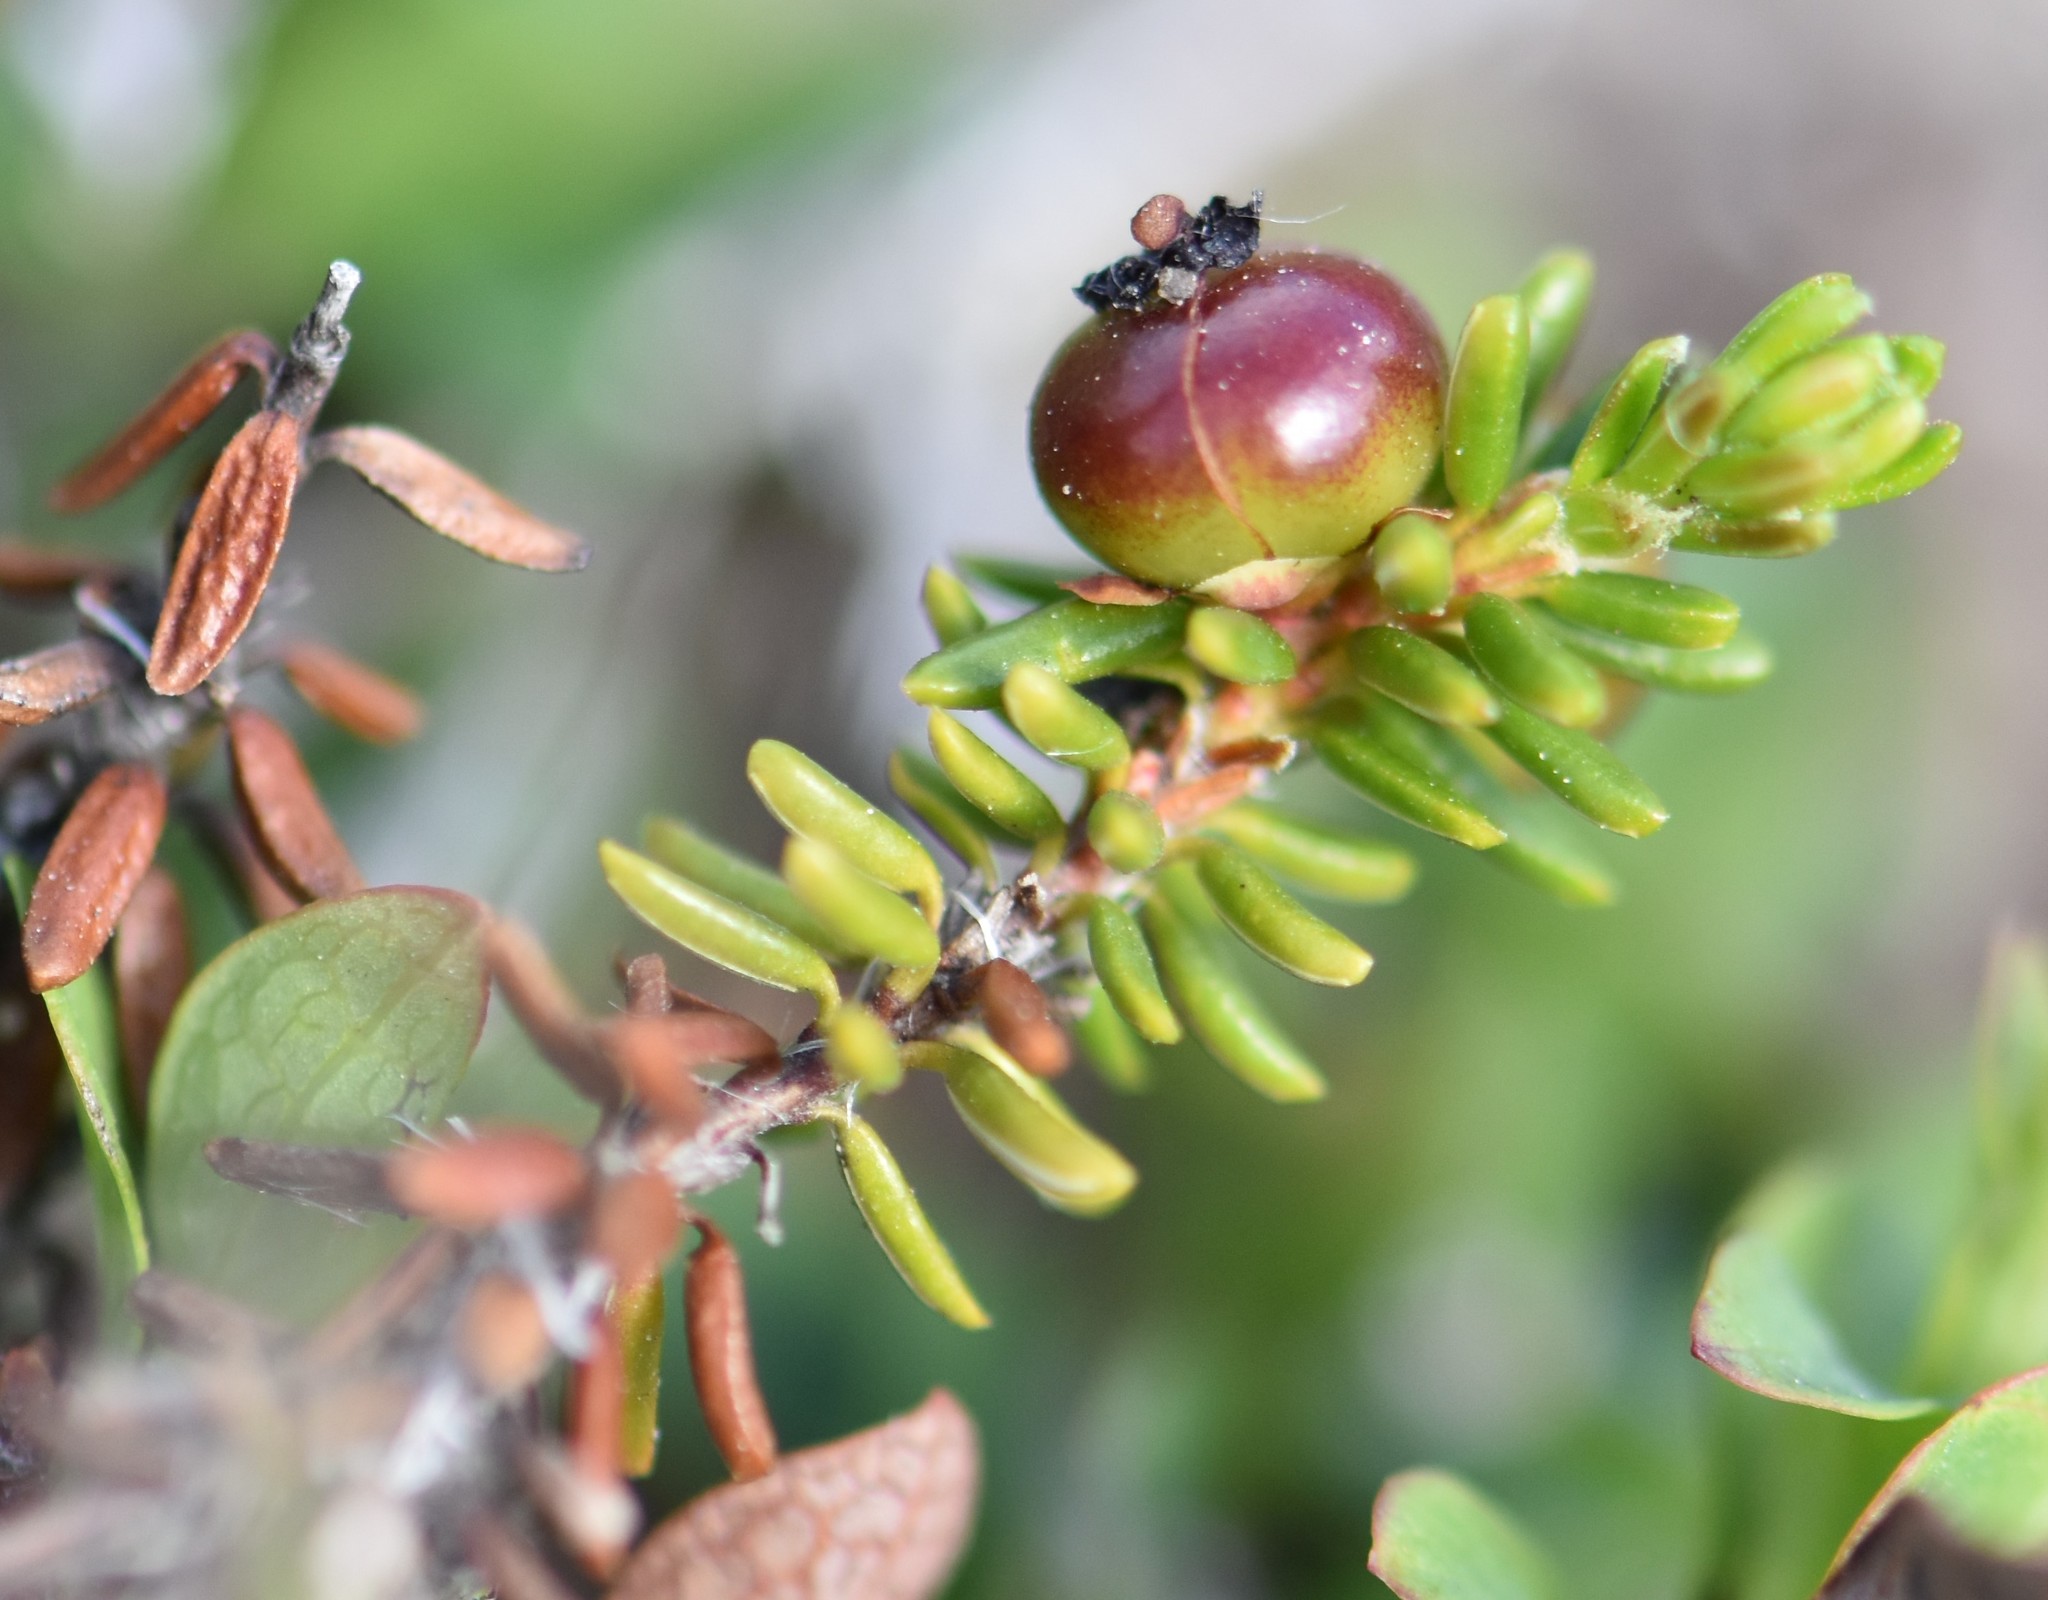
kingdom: Plantae
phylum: Tracheophyta
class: Magnoliopsida
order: Ericales
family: Ericaceae
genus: Empetrum
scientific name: Empetrum nigrum
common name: Black crowberry
